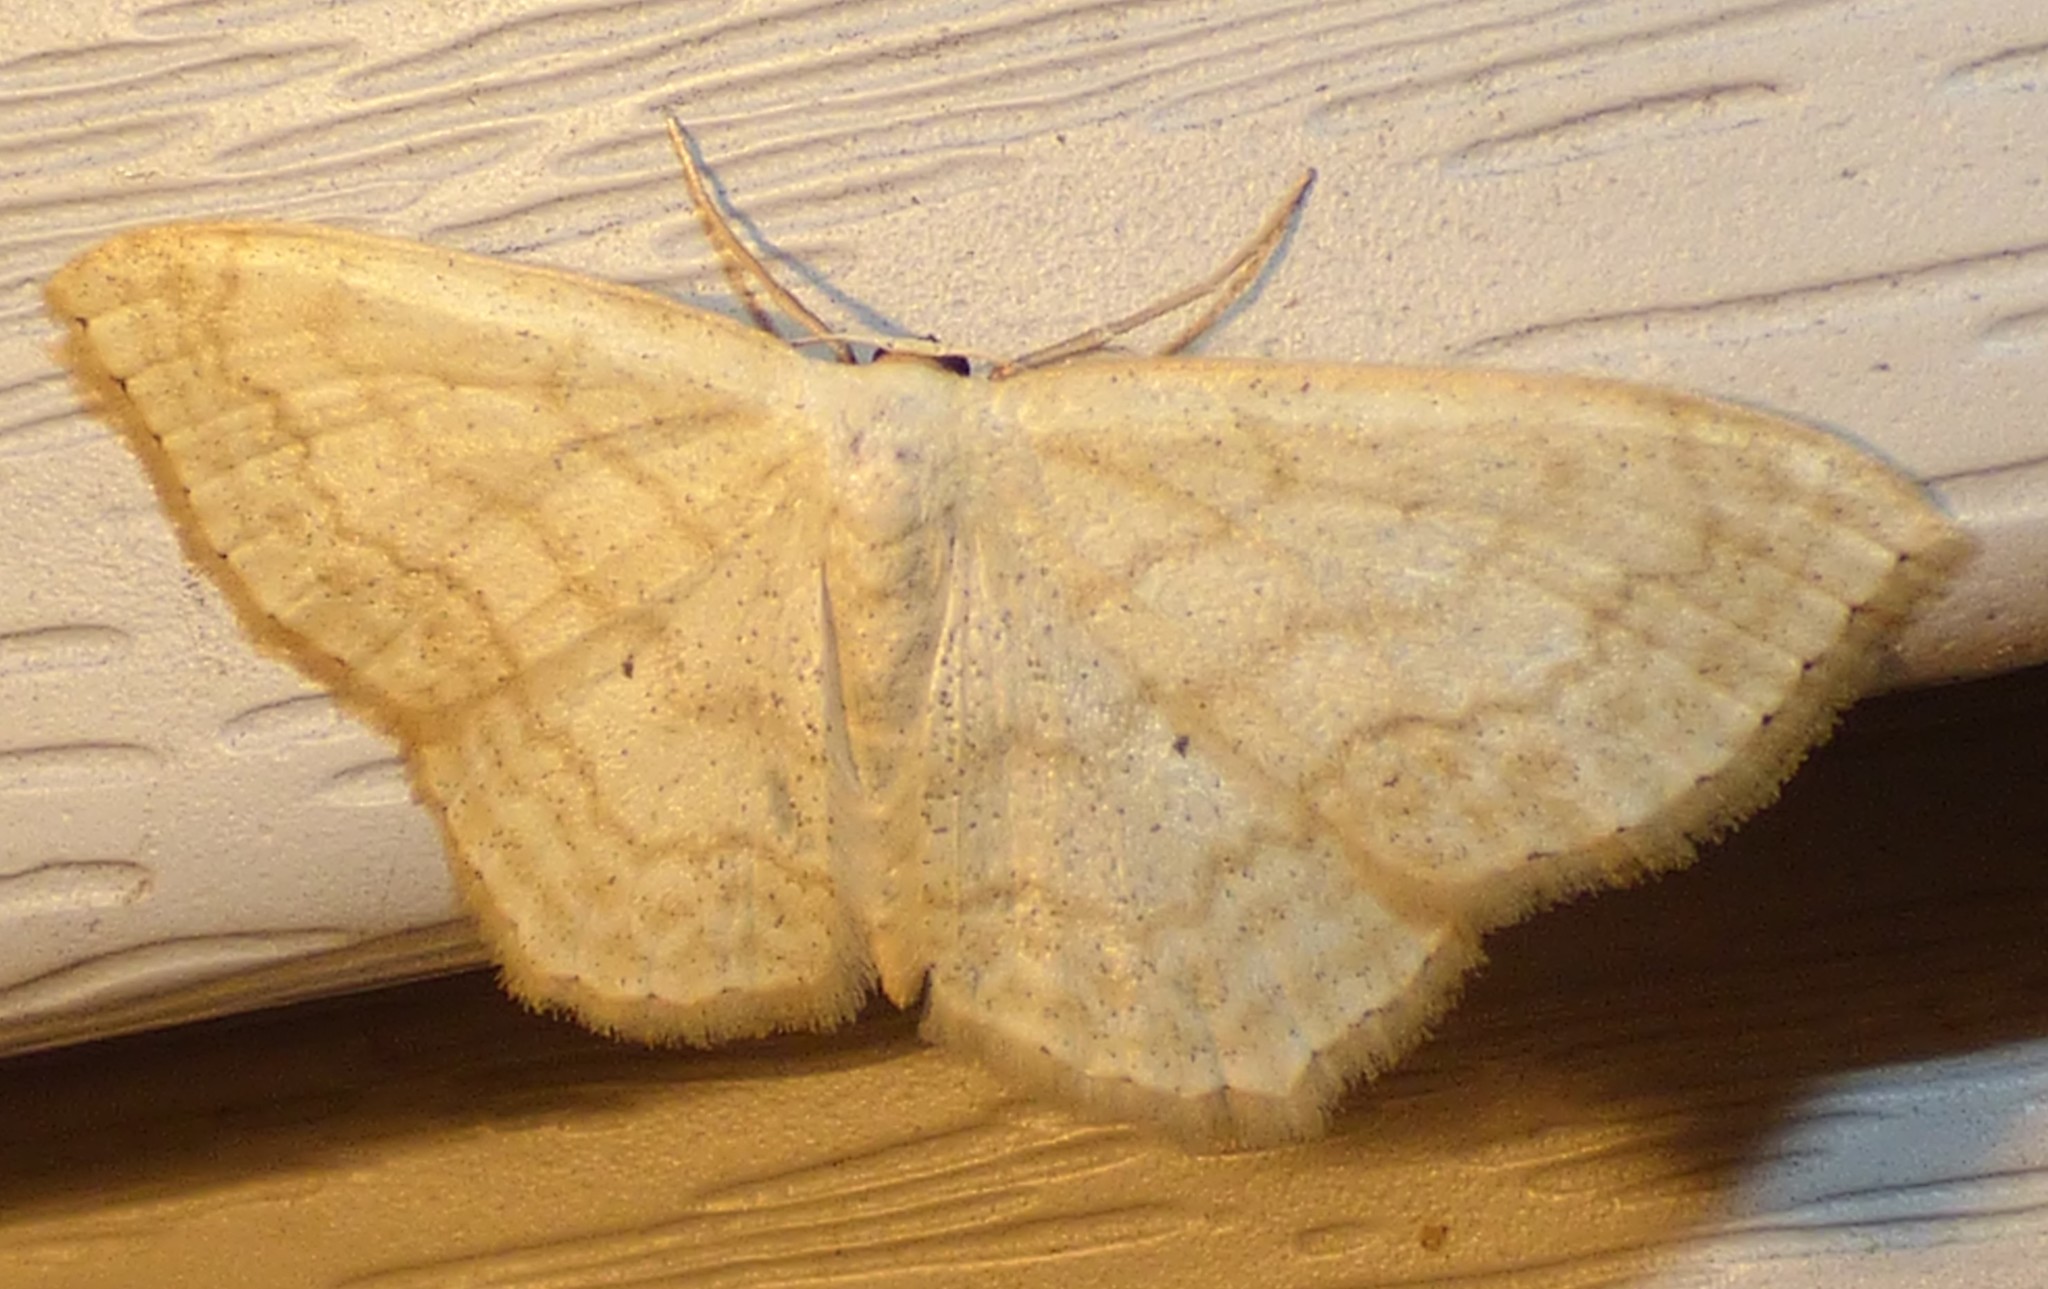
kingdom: Animalia
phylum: Arthropoda
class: Insecta
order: Lepidoptera
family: Geometridae
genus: Scopula
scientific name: Scopula limboundata
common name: Large lace border
